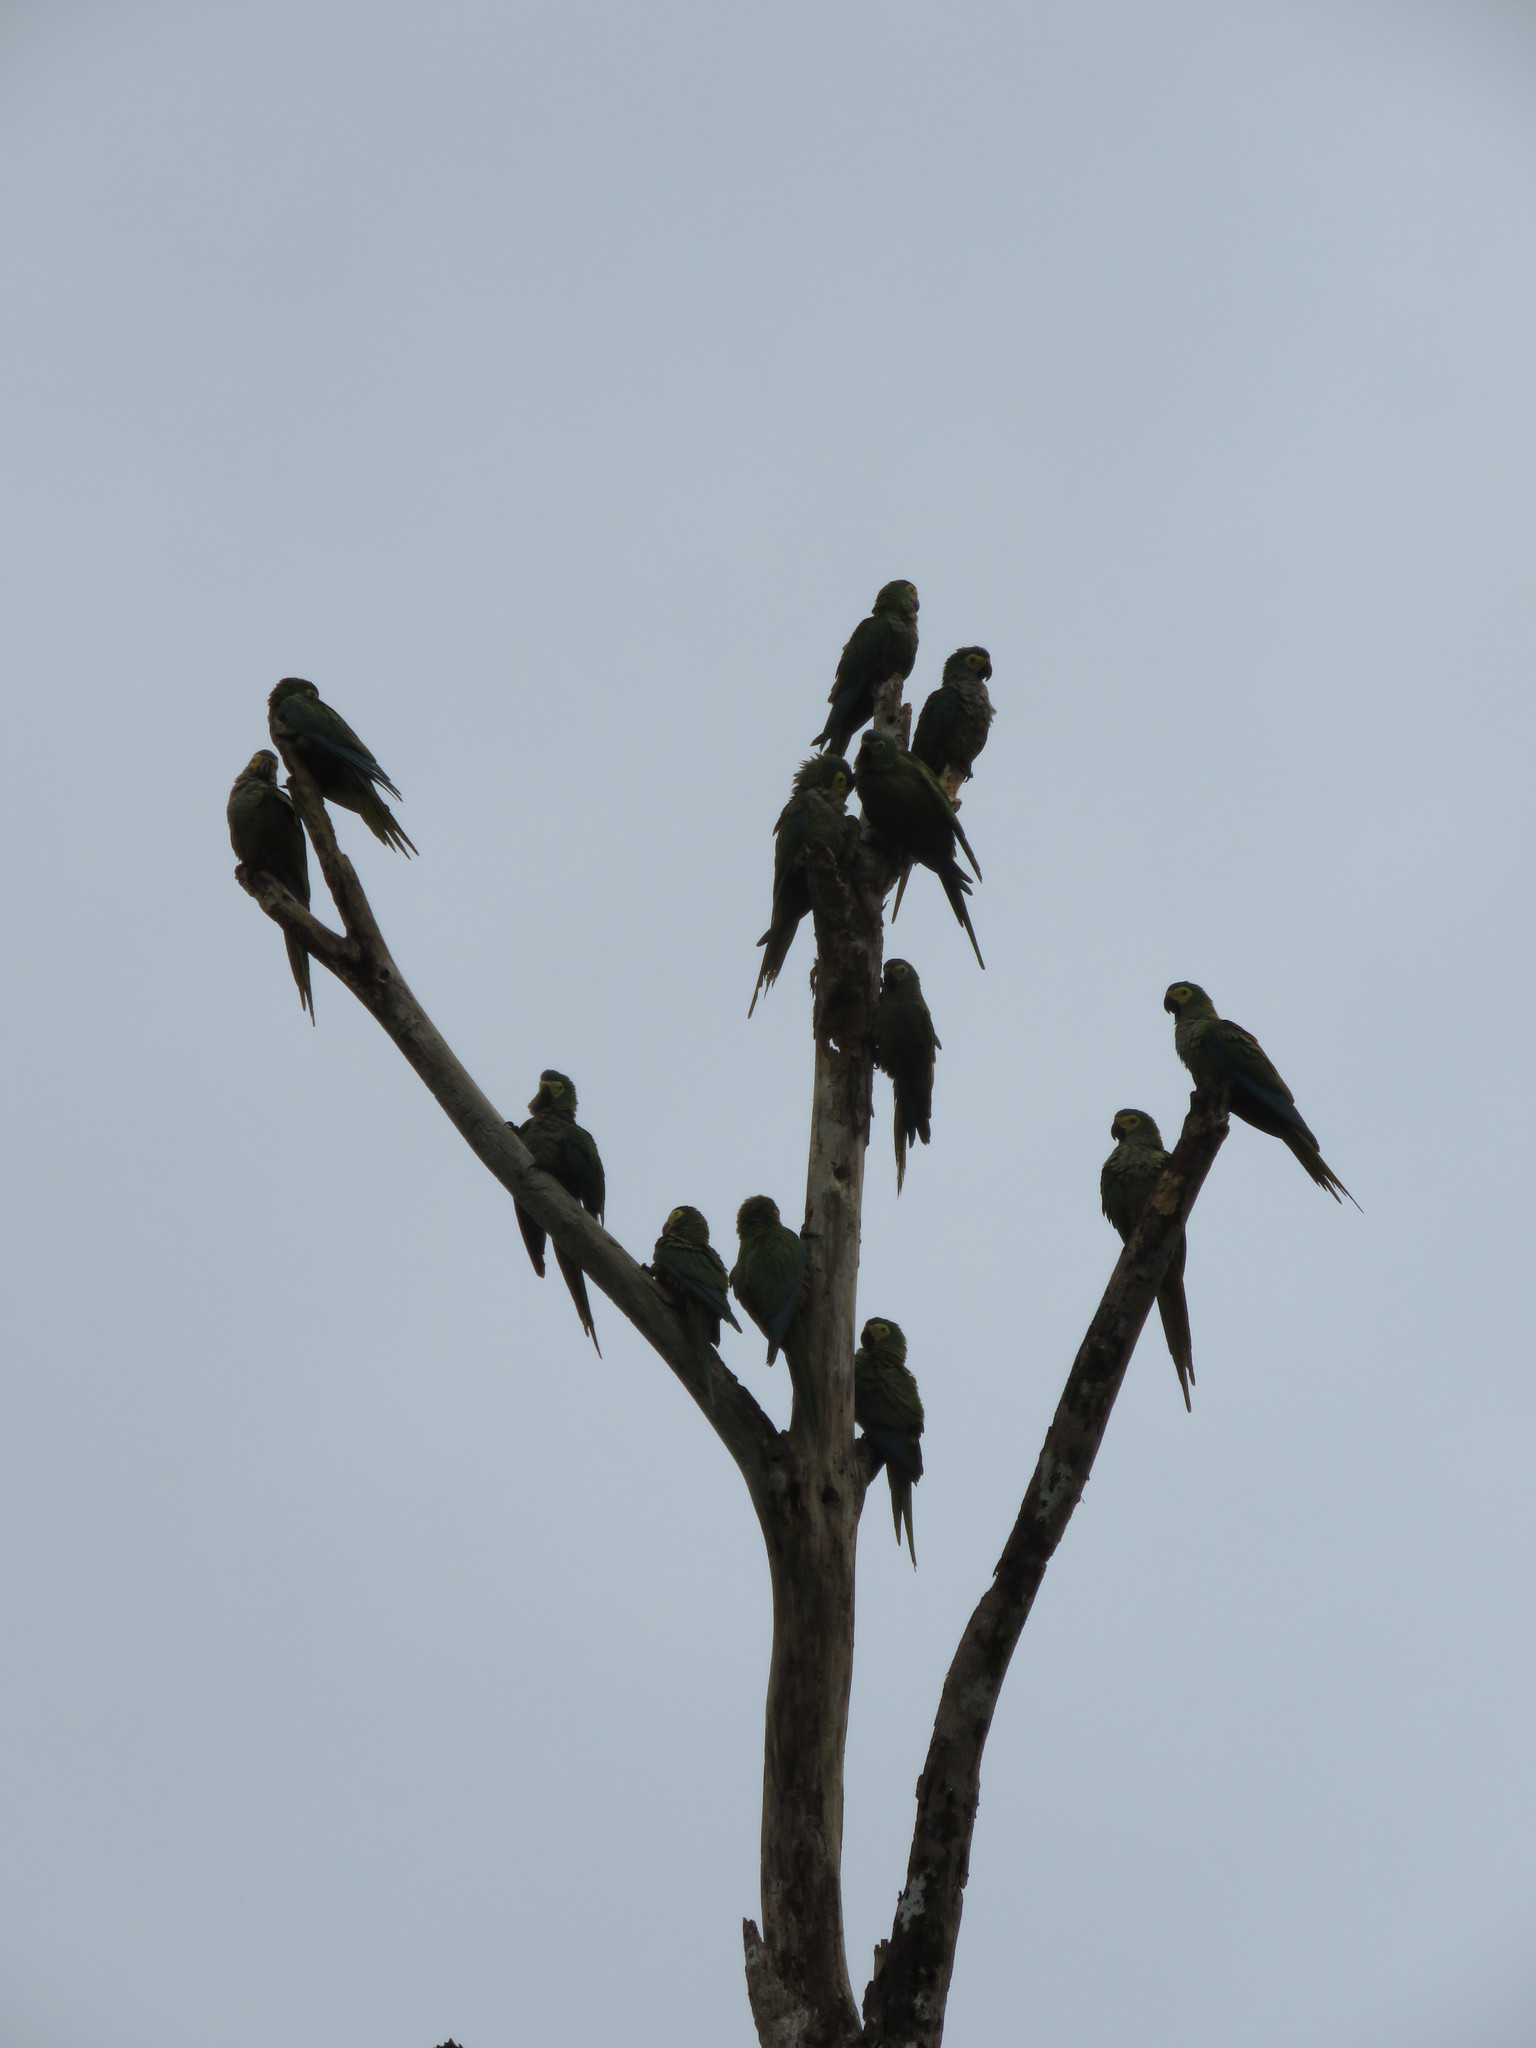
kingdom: Animalia
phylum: Chordata
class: Aves
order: Psittaciformes
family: Psittacidae
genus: Orthopsittaca
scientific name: Orthopsittaca manilata
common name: Red-bellied macaw
